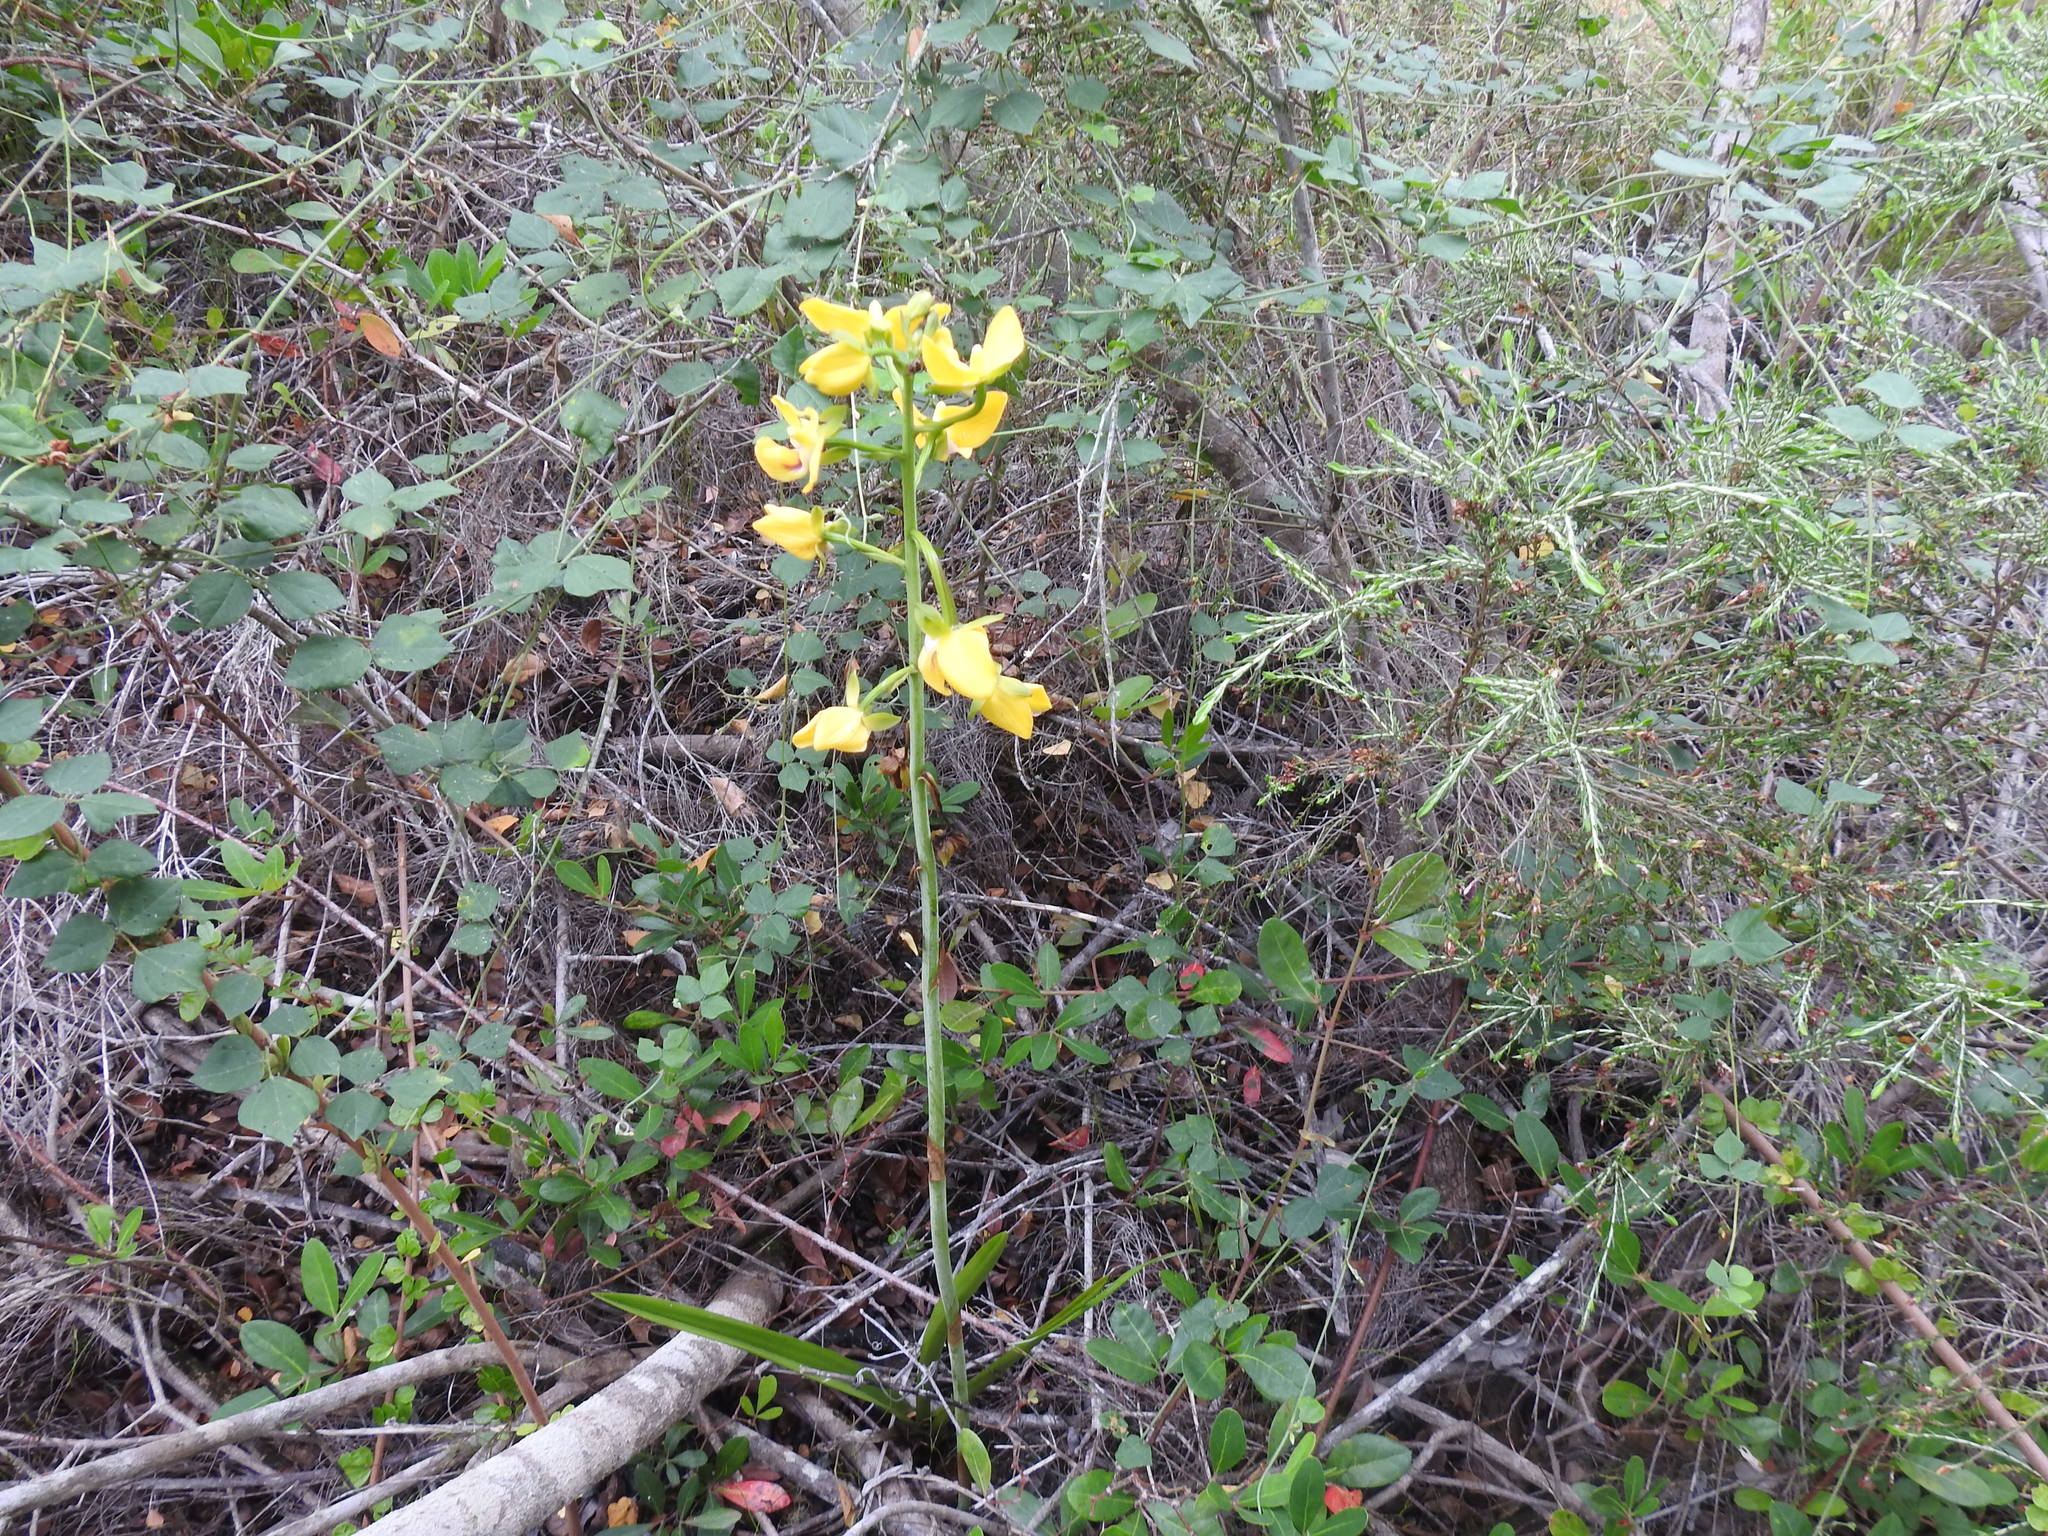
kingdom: Plantae
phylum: Tracheophyta
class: Liliopsida
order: Asparagales
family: Orchidaceae
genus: Eulophia
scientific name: Eulophia speciosa
